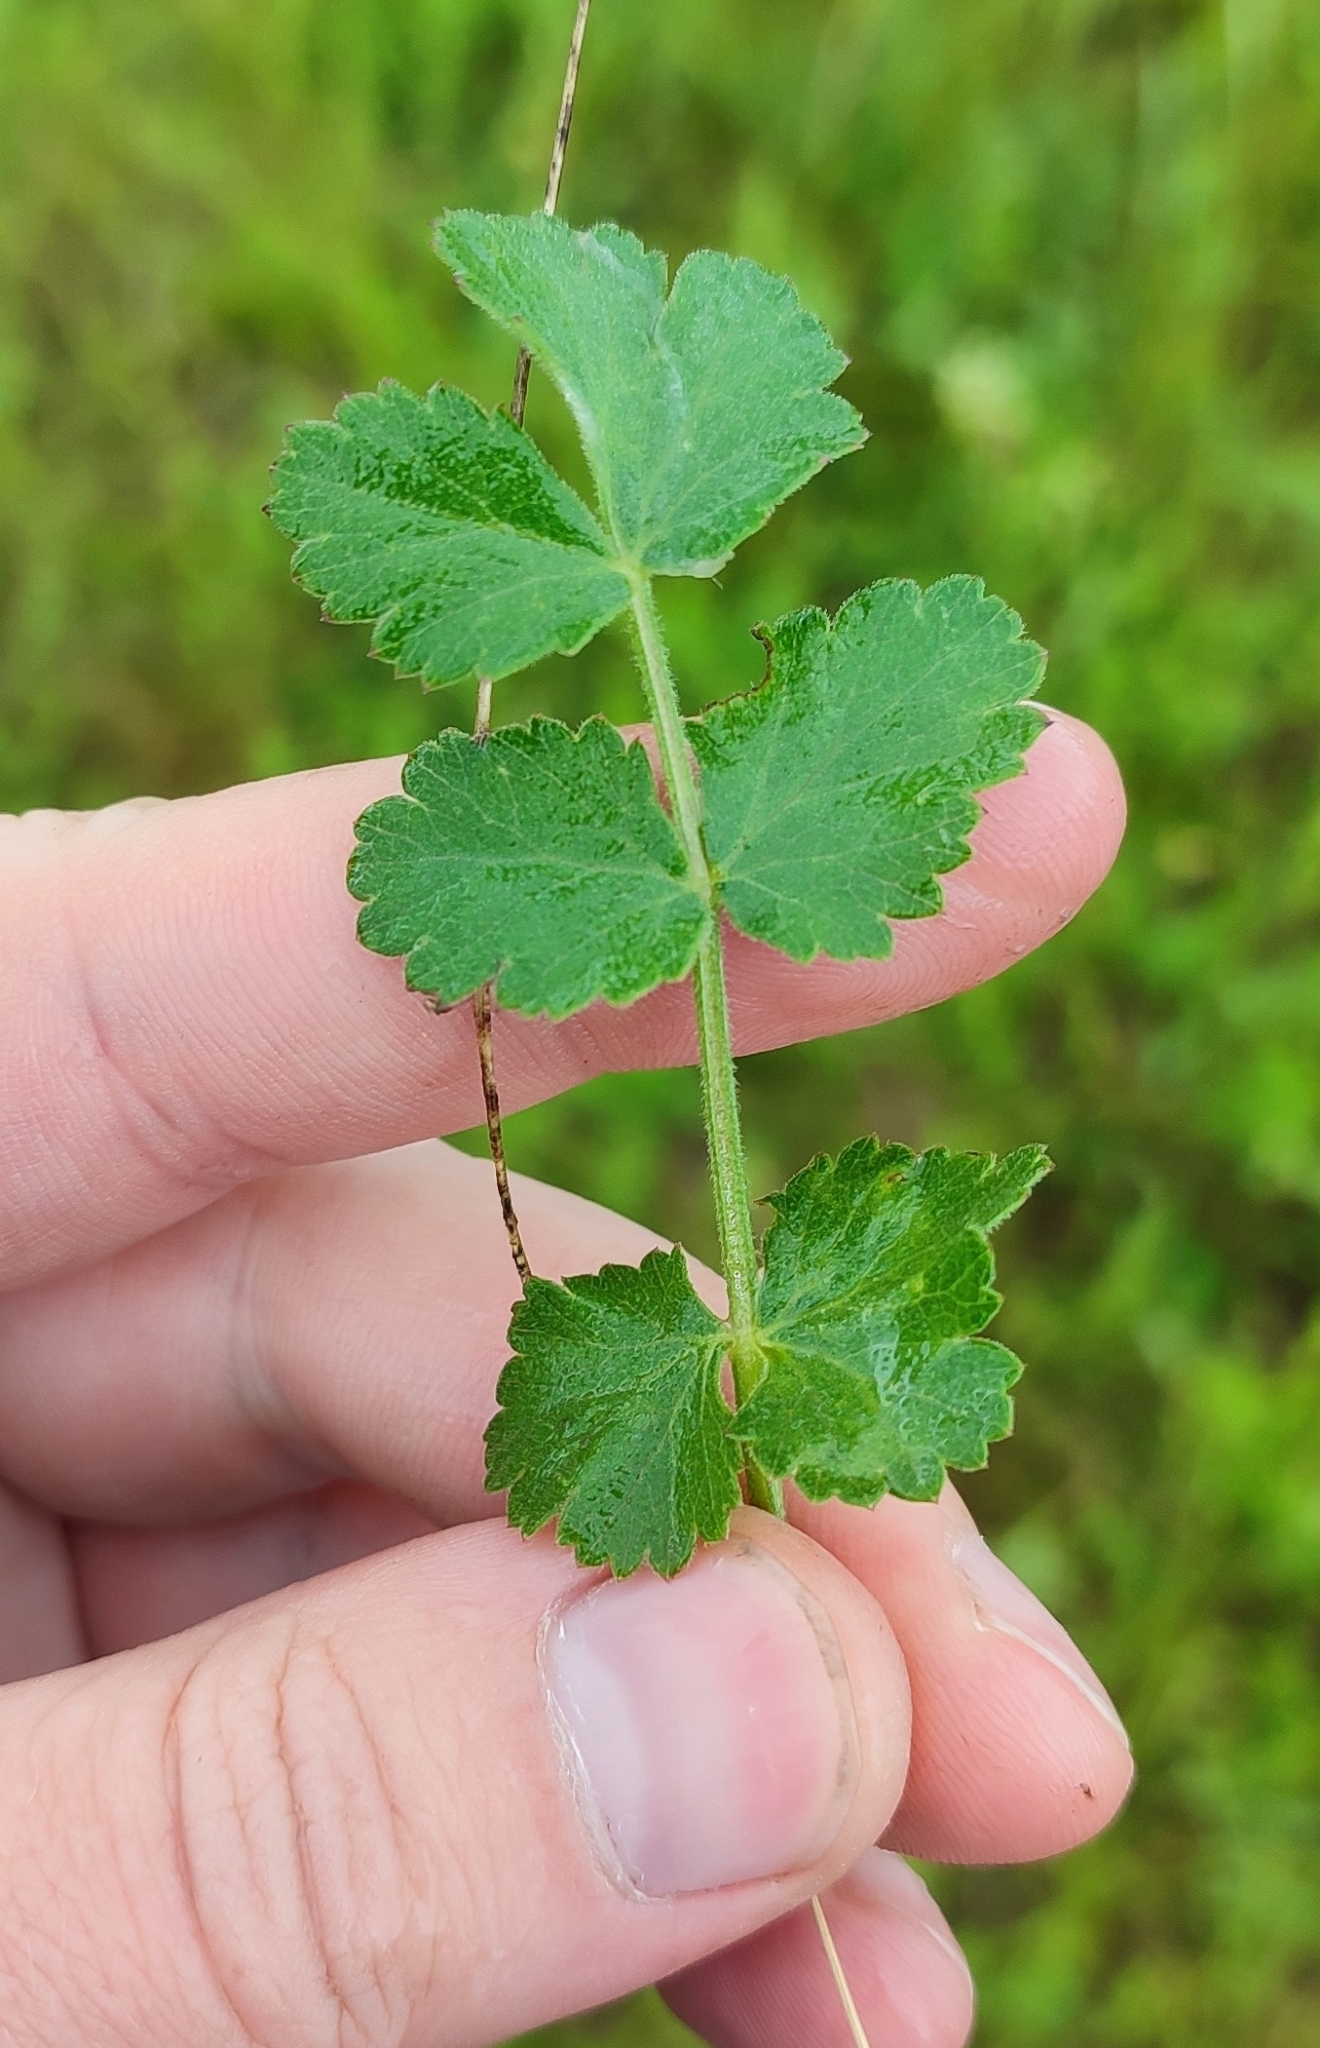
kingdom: Plantae
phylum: Tracheophyta
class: Magnoliopsida
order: Apiales
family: Apiaceae
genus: Pimpinella
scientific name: Pimpinella saxifraga
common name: Burnet-saxifrage
